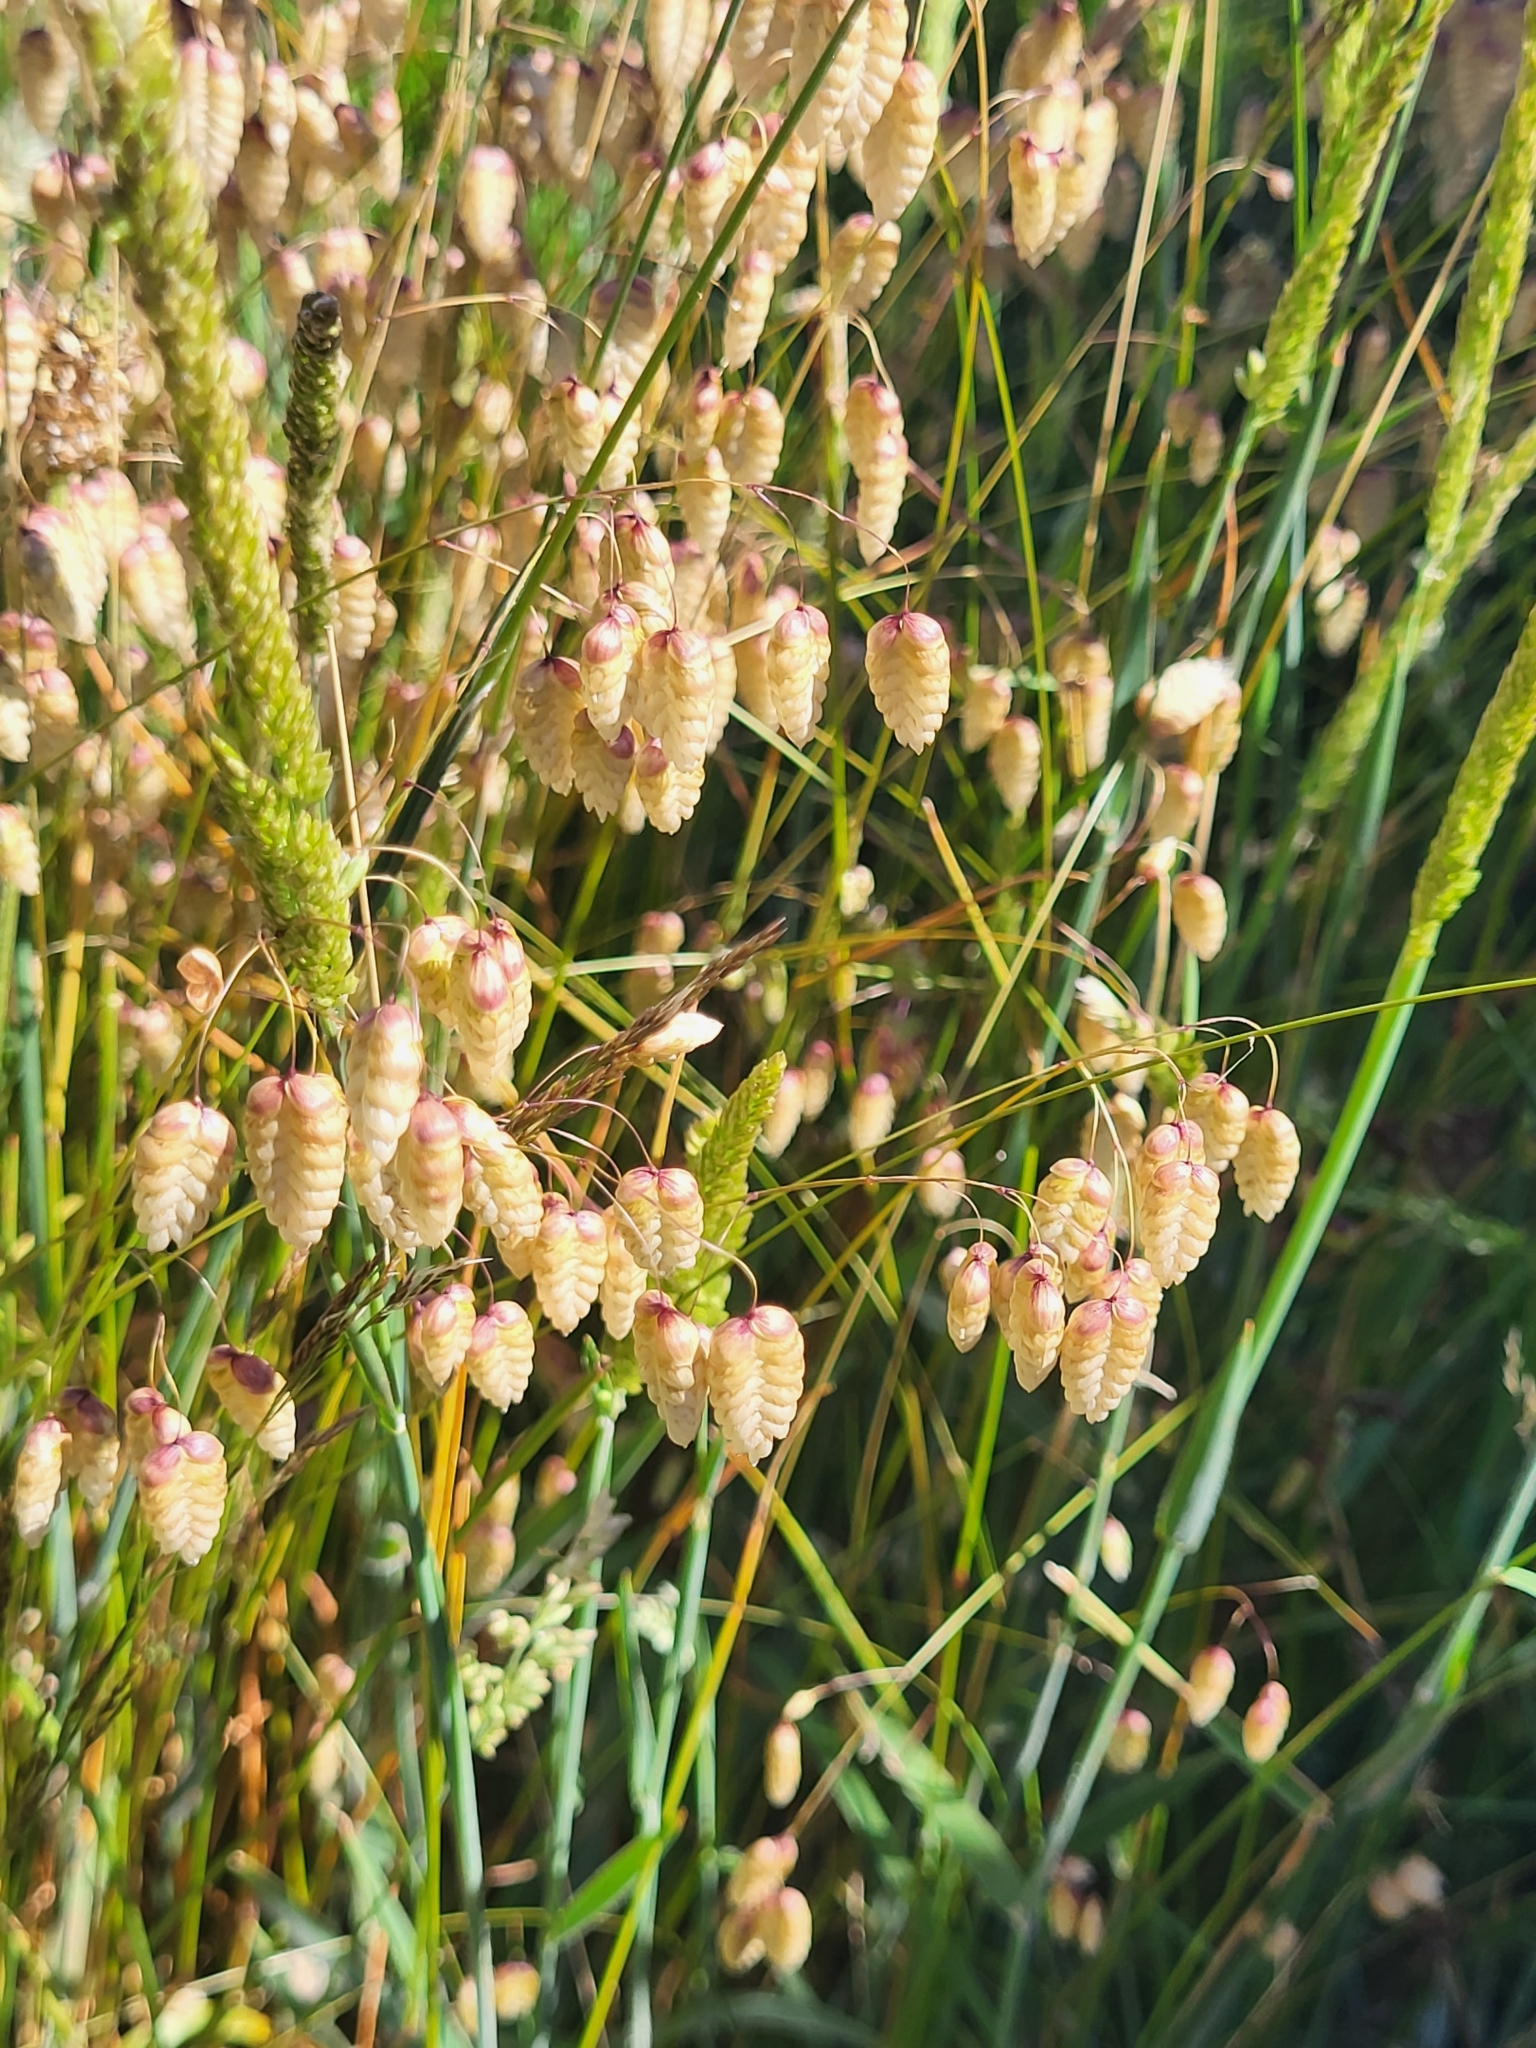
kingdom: Plantae
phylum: Tracheophyta
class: Liliopsida
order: Poales
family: Poaceae
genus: Briza
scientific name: Briza maxima
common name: Big quakinggrass
